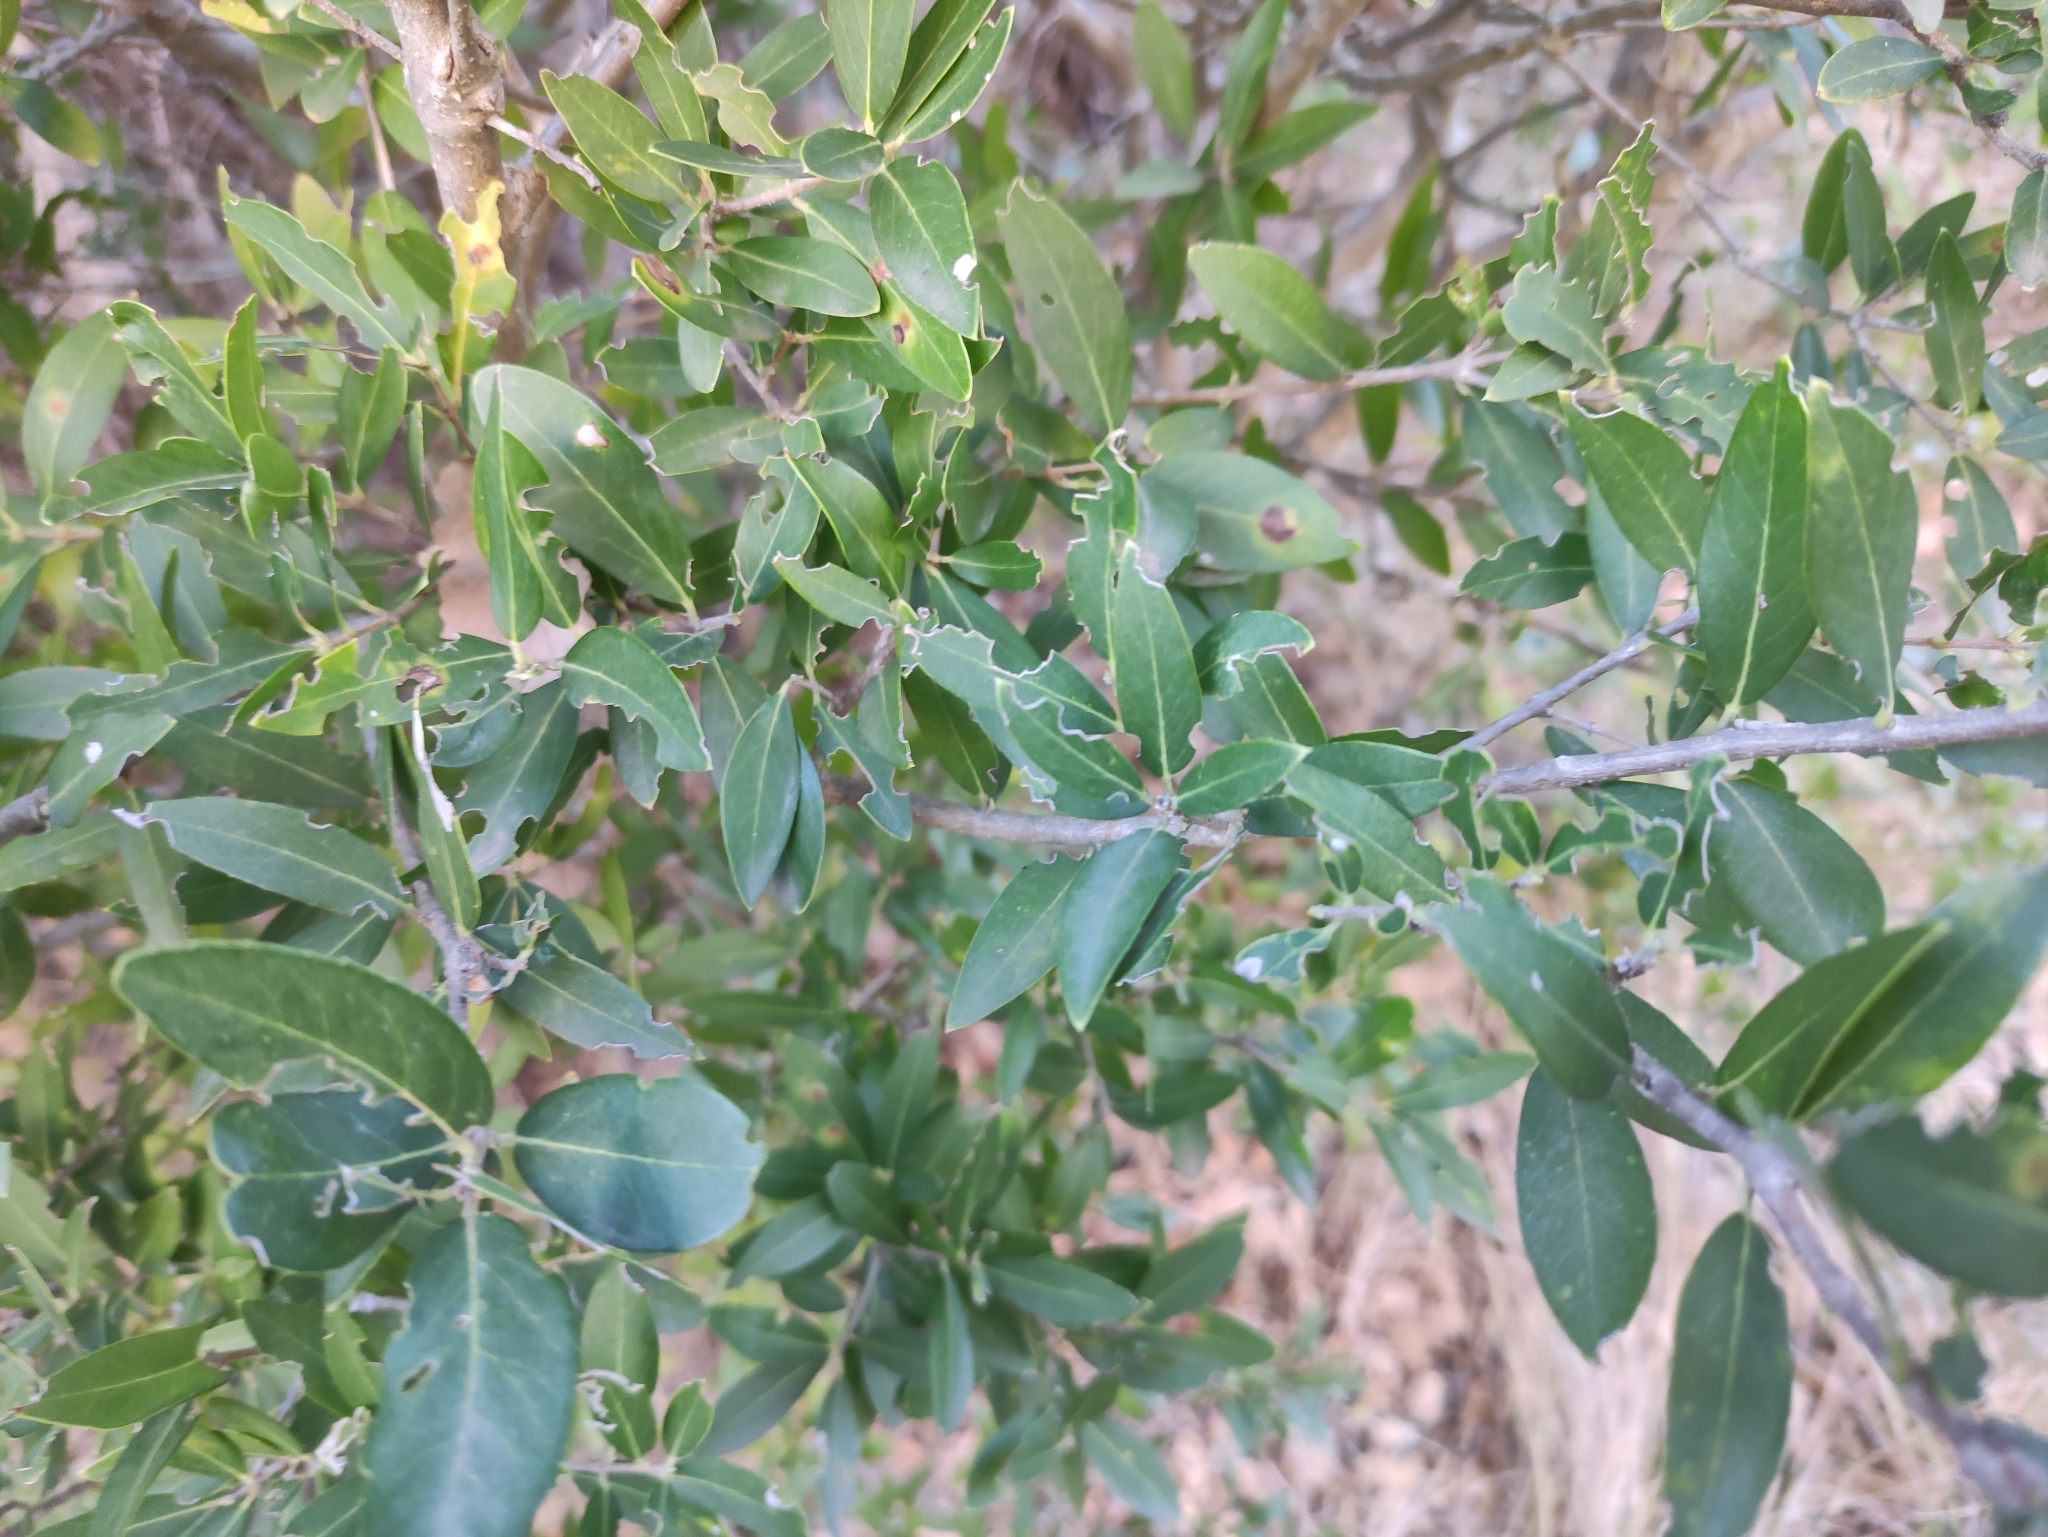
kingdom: Plantae
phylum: Tracheophyta
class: Magnoliopsida
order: Lamiales
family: Oleaceae
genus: Phillyrea
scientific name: Phillyrea angustifolia
